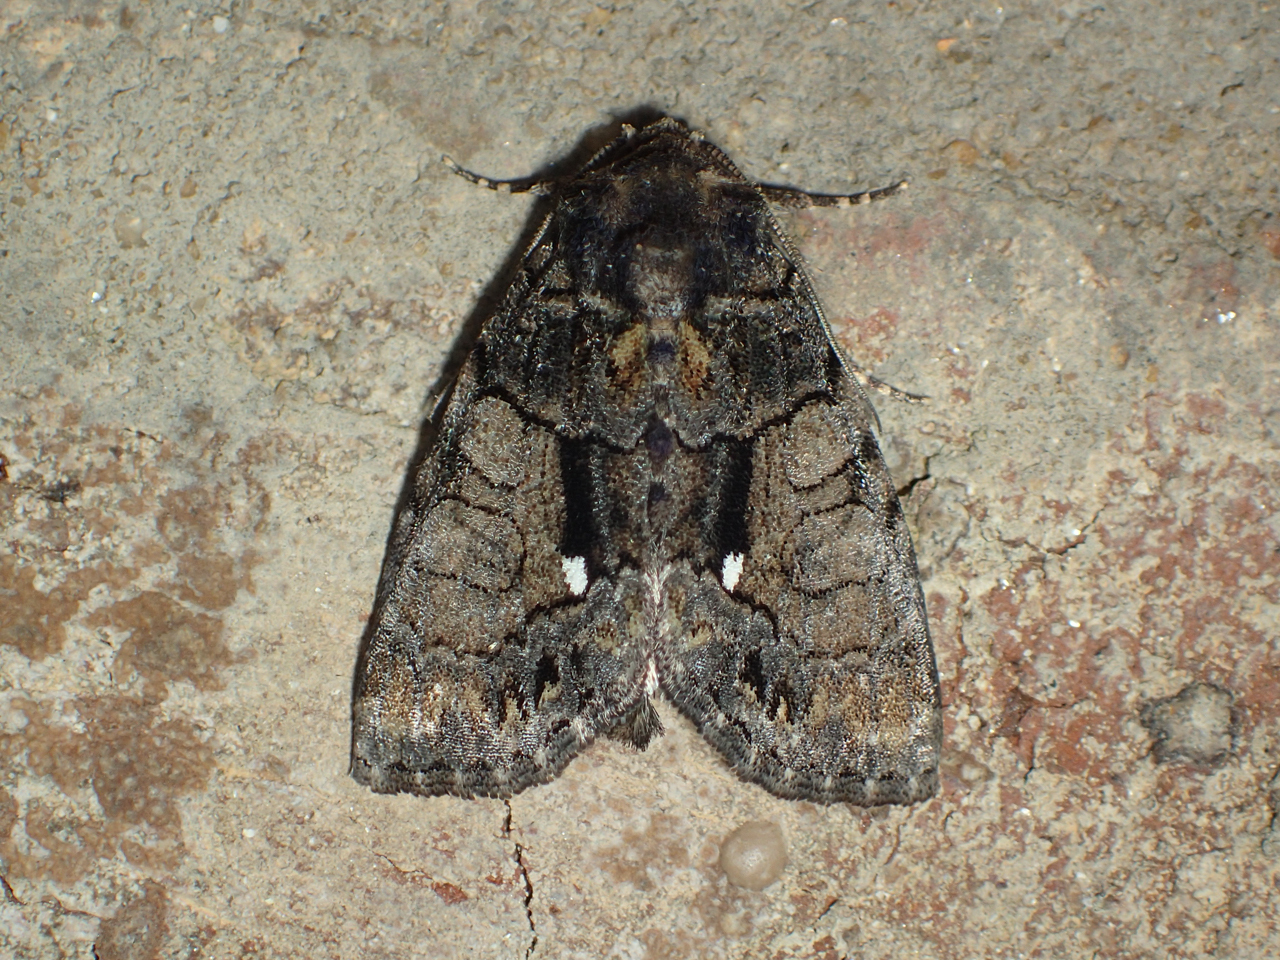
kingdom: Animalia
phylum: Arthropoda
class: Insecta
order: Lepidoptera
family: Noctuidae
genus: Chytonix
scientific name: Chytonix palliatricula
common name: Cloaked marvel
